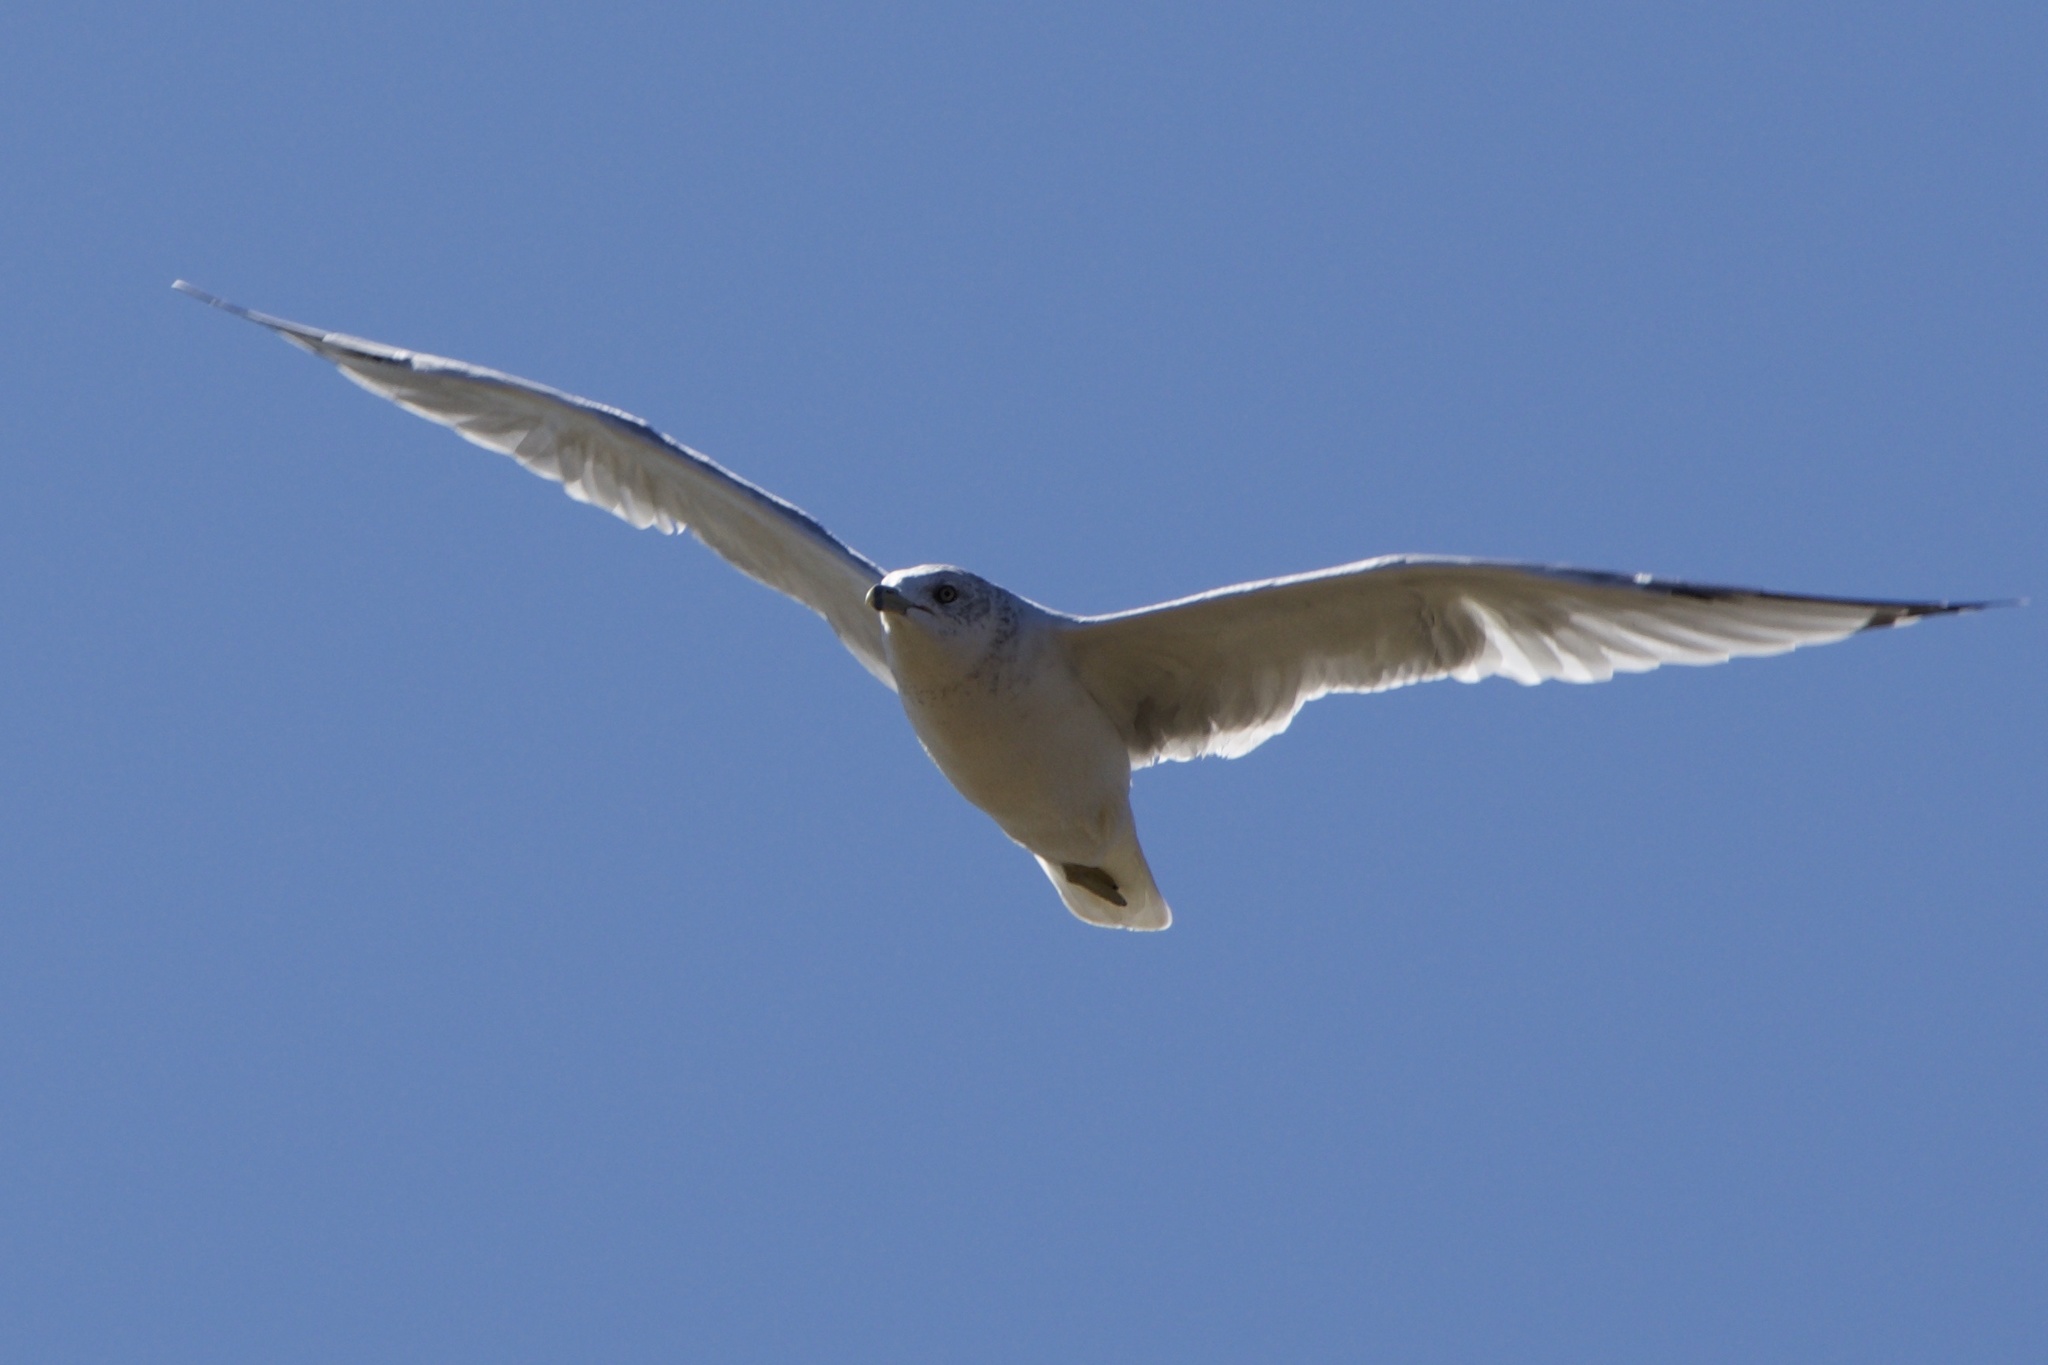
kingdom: Animalia
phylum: Chordata
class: Aves
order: Charadriiformes
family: Laridae
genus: Larus
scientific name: Larus delawarensis
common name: Ring-billed gull
